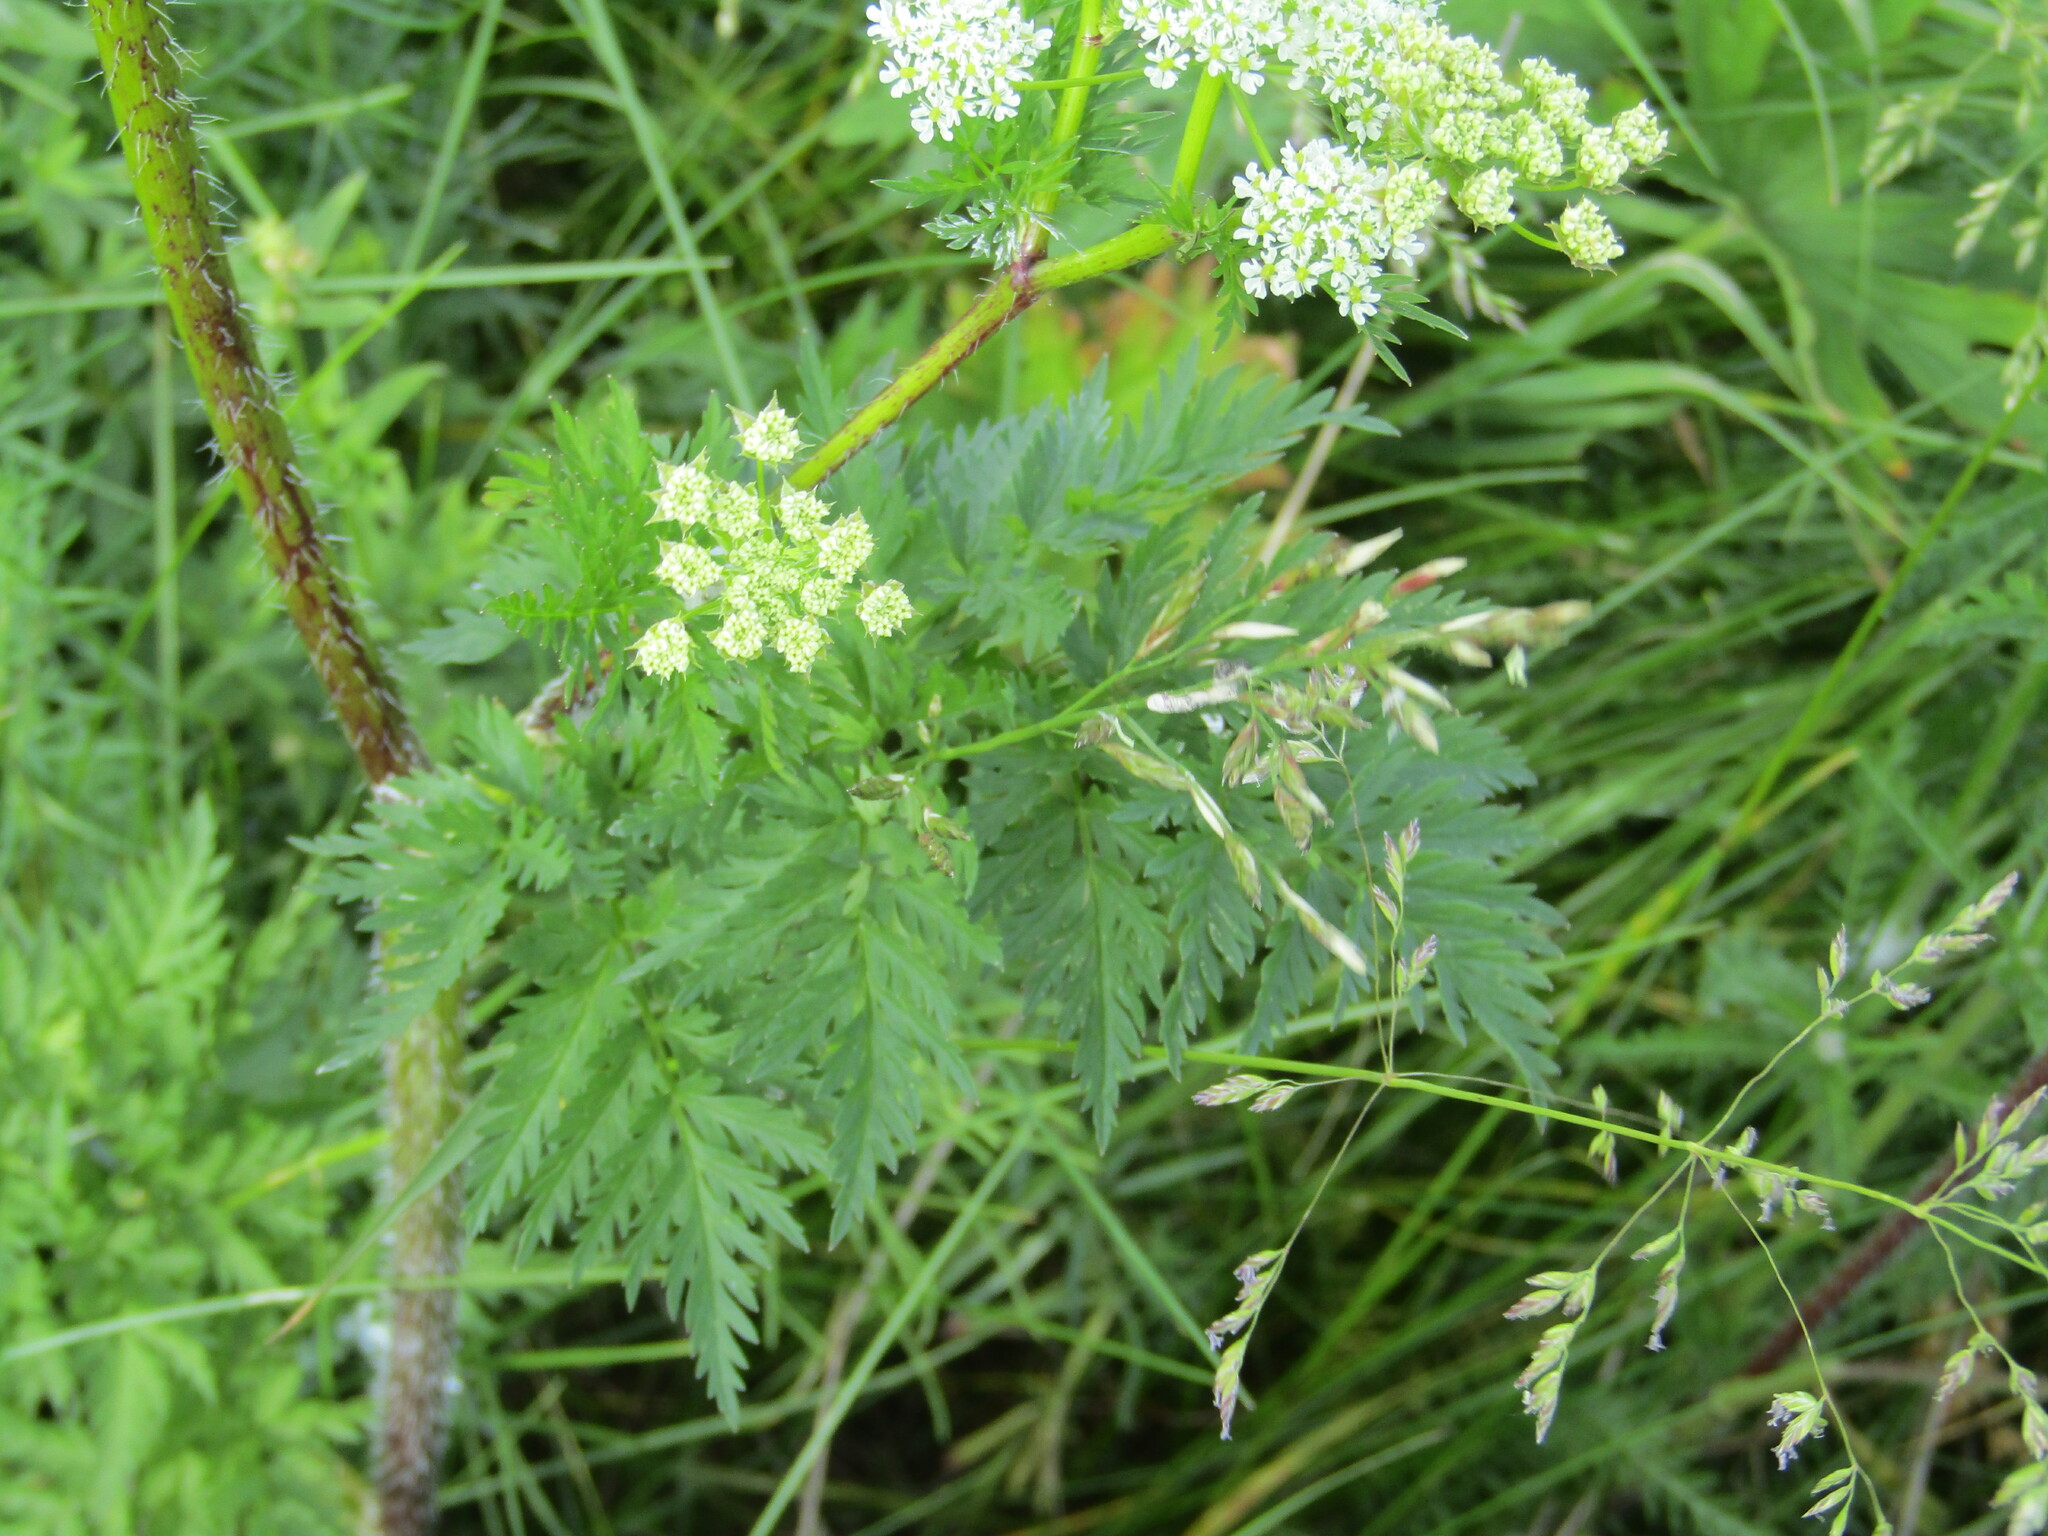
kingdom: Plantae
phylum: Tracheophyta
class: Magnoliopsida
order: Apiales
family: Apiaceae
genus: Chaerophyllum
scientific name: Chaerophyllum prescottii
